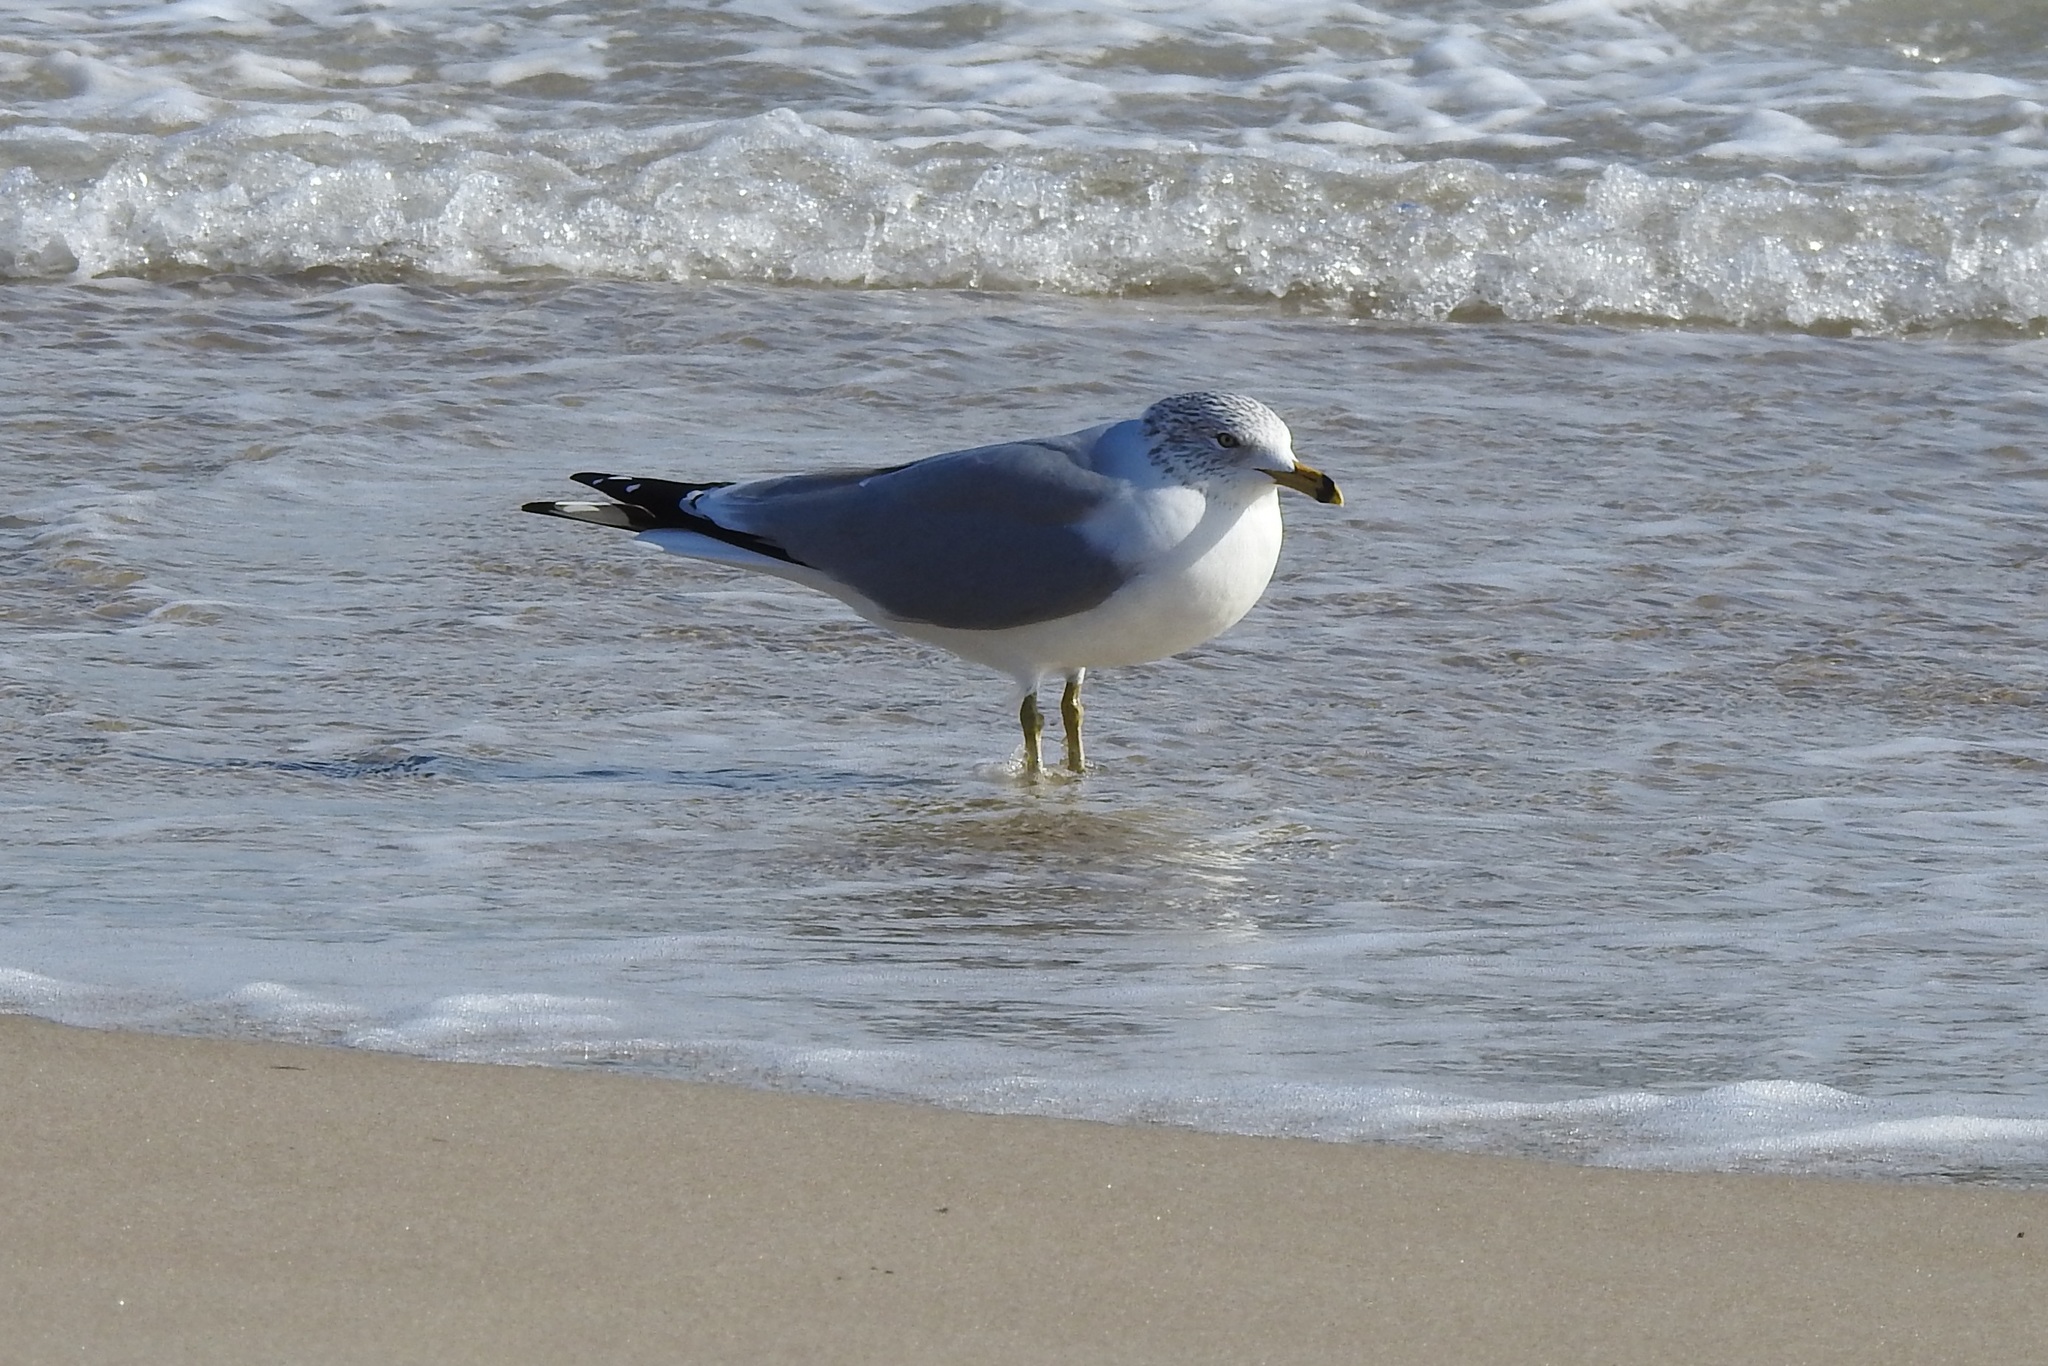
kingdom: Animalia
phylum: Chordata
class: Aves
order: Charadriiformes
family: Laridae
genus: Larus
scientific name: Larus delawarensis
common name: Ring-billed gull
